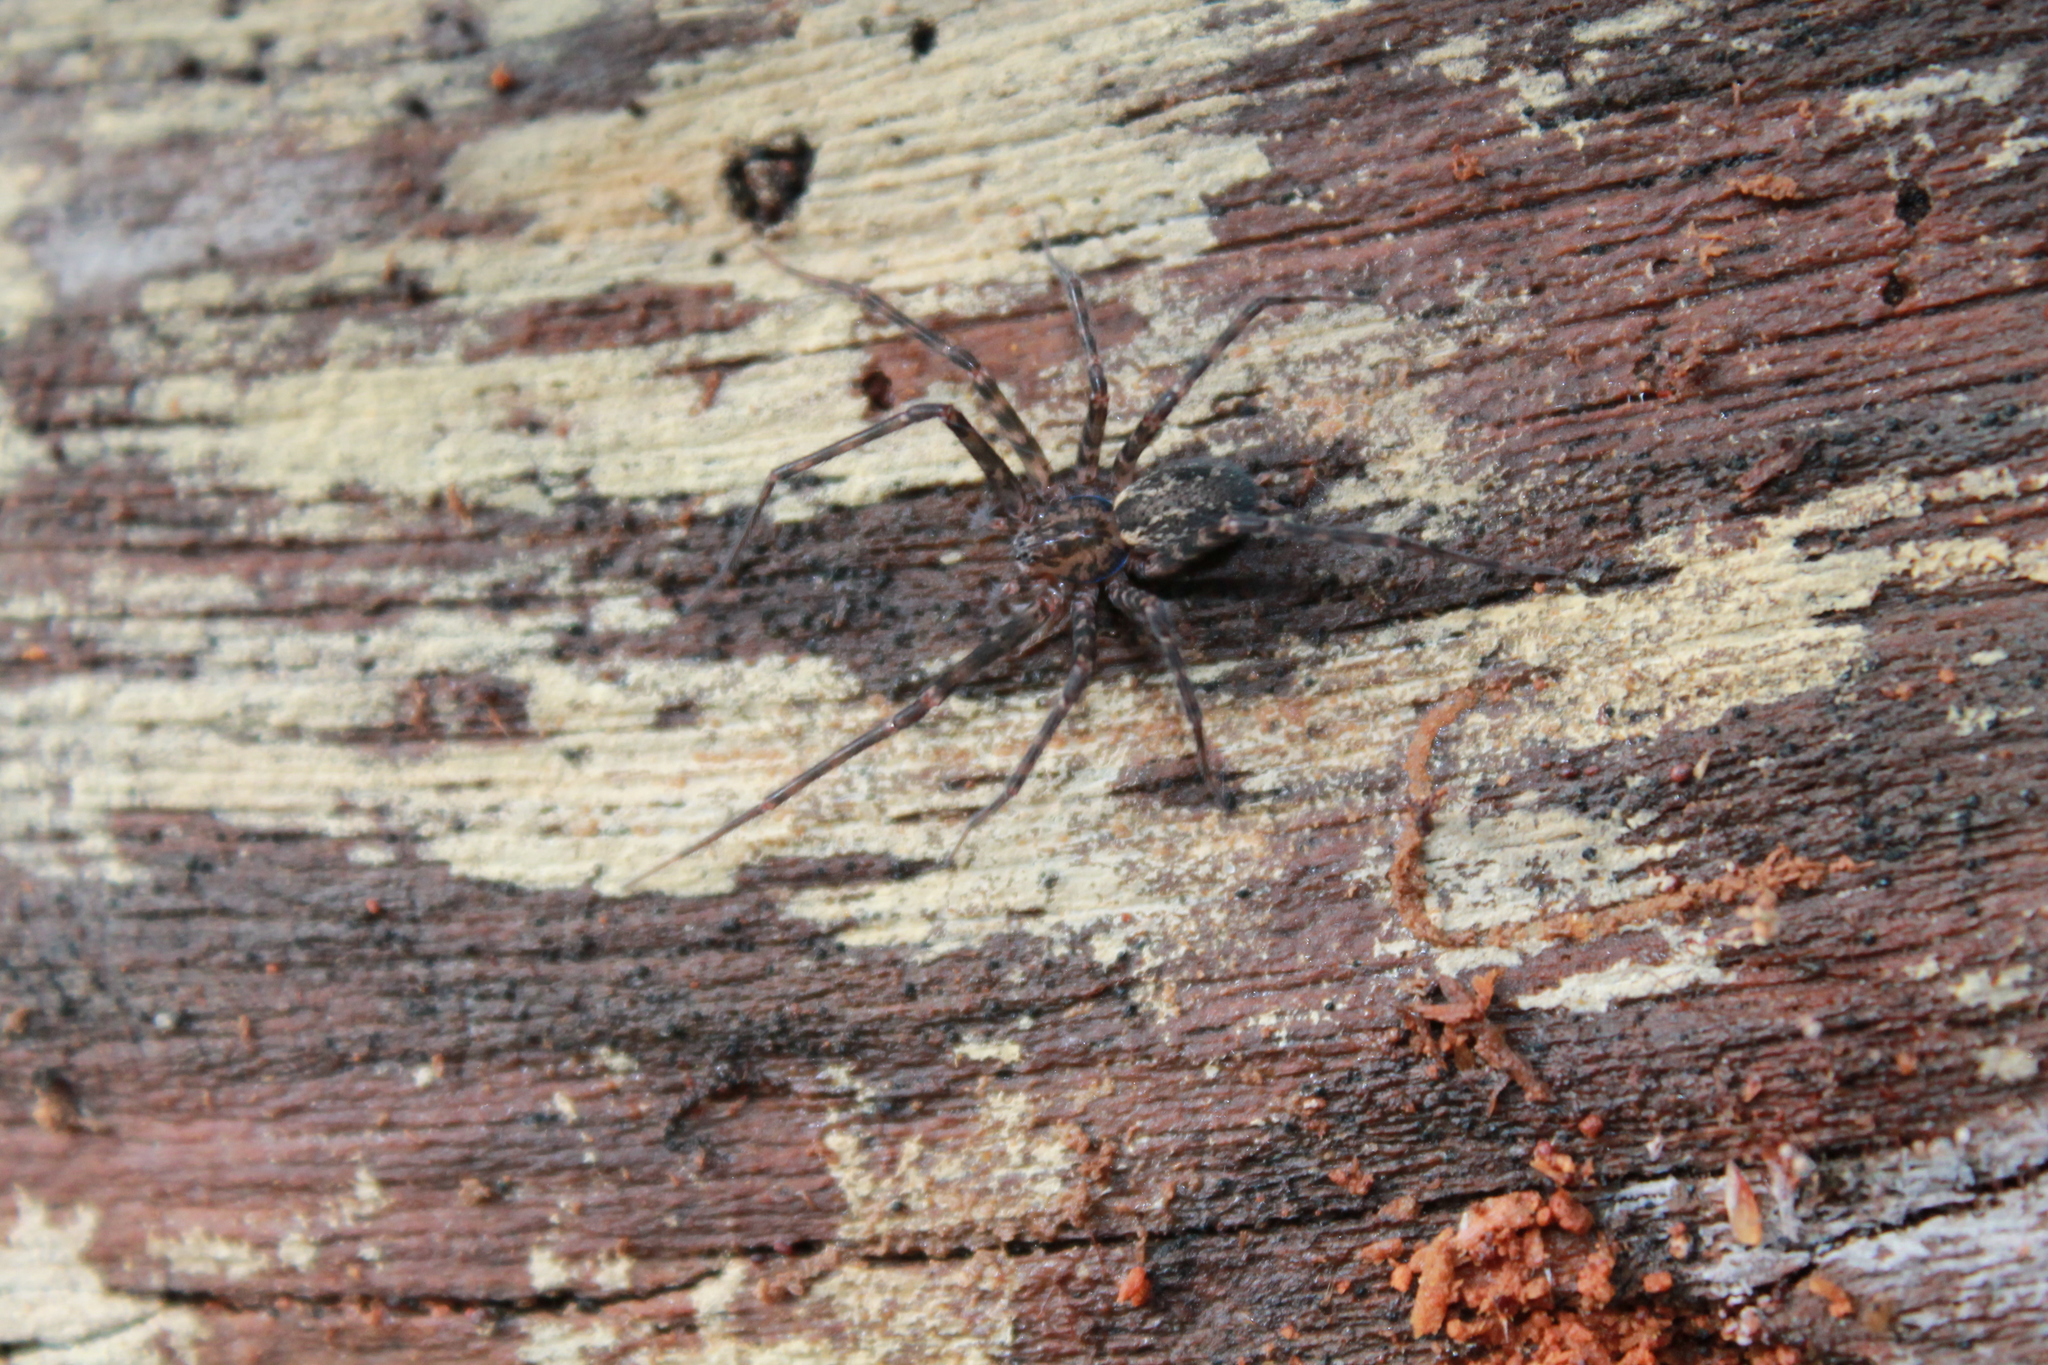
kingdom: Animalia
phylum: Arthropoda
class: Arachnida
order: Araneae
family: Stiphidiidae
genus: Stiphidion
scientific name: Stiphidion facetum
